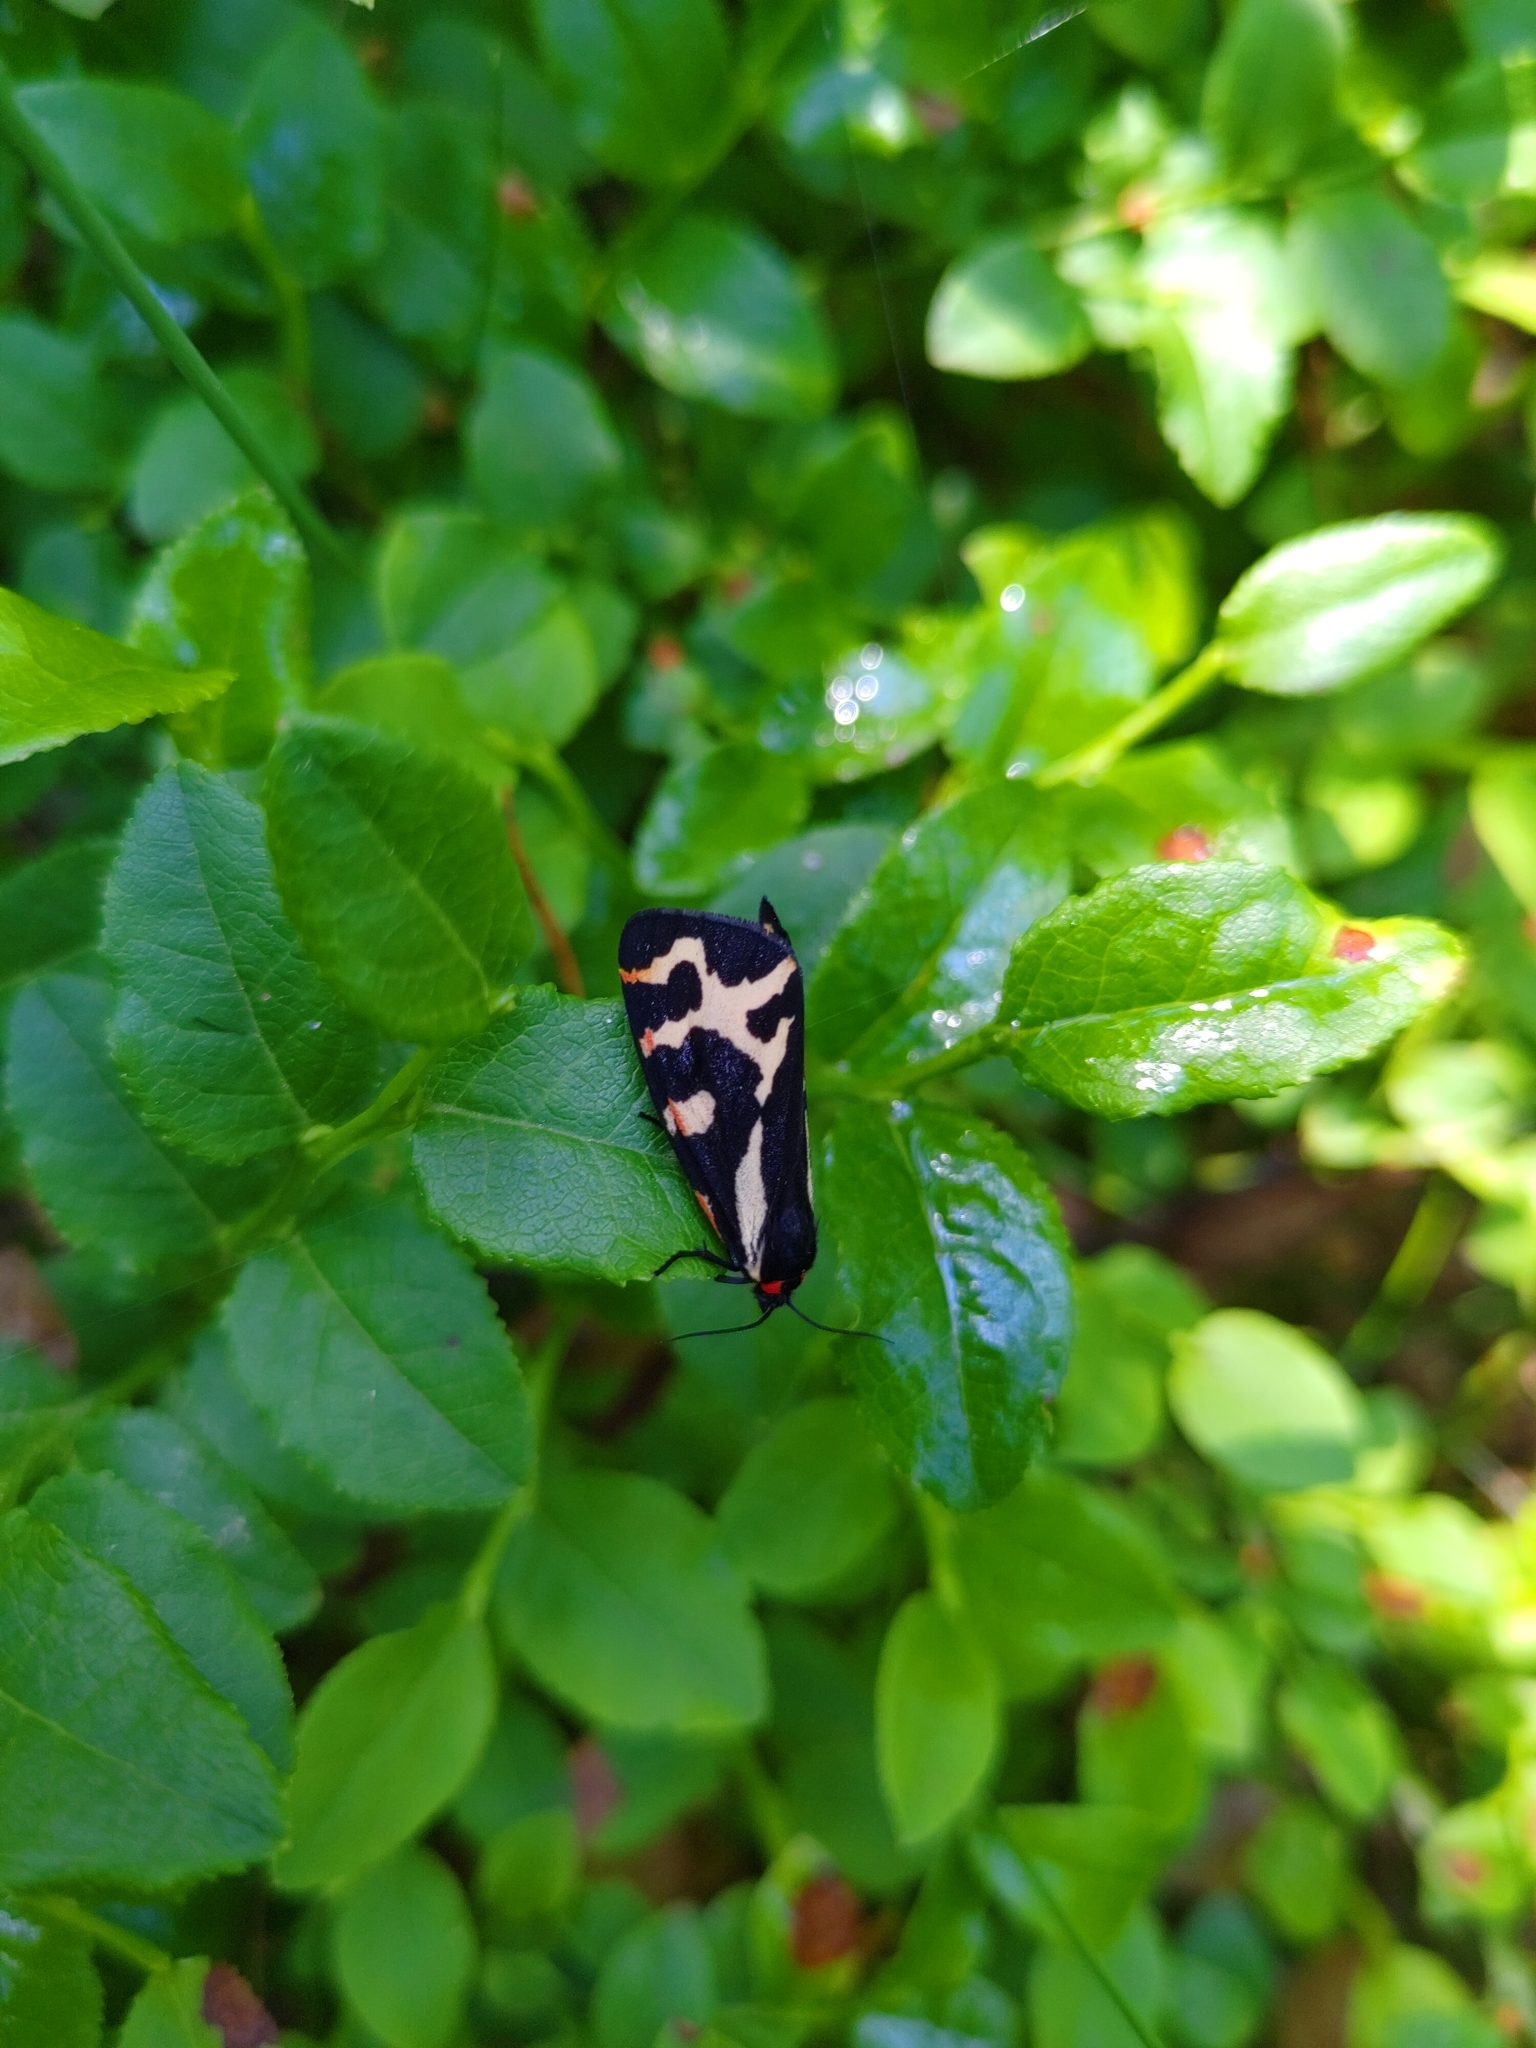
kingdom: Animalia
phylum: Arthropoda
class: Insecta
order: Lepidoptera
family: Erebidae
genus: Parasemia
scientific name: Parasemia plantaginis
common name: Wood tiger
